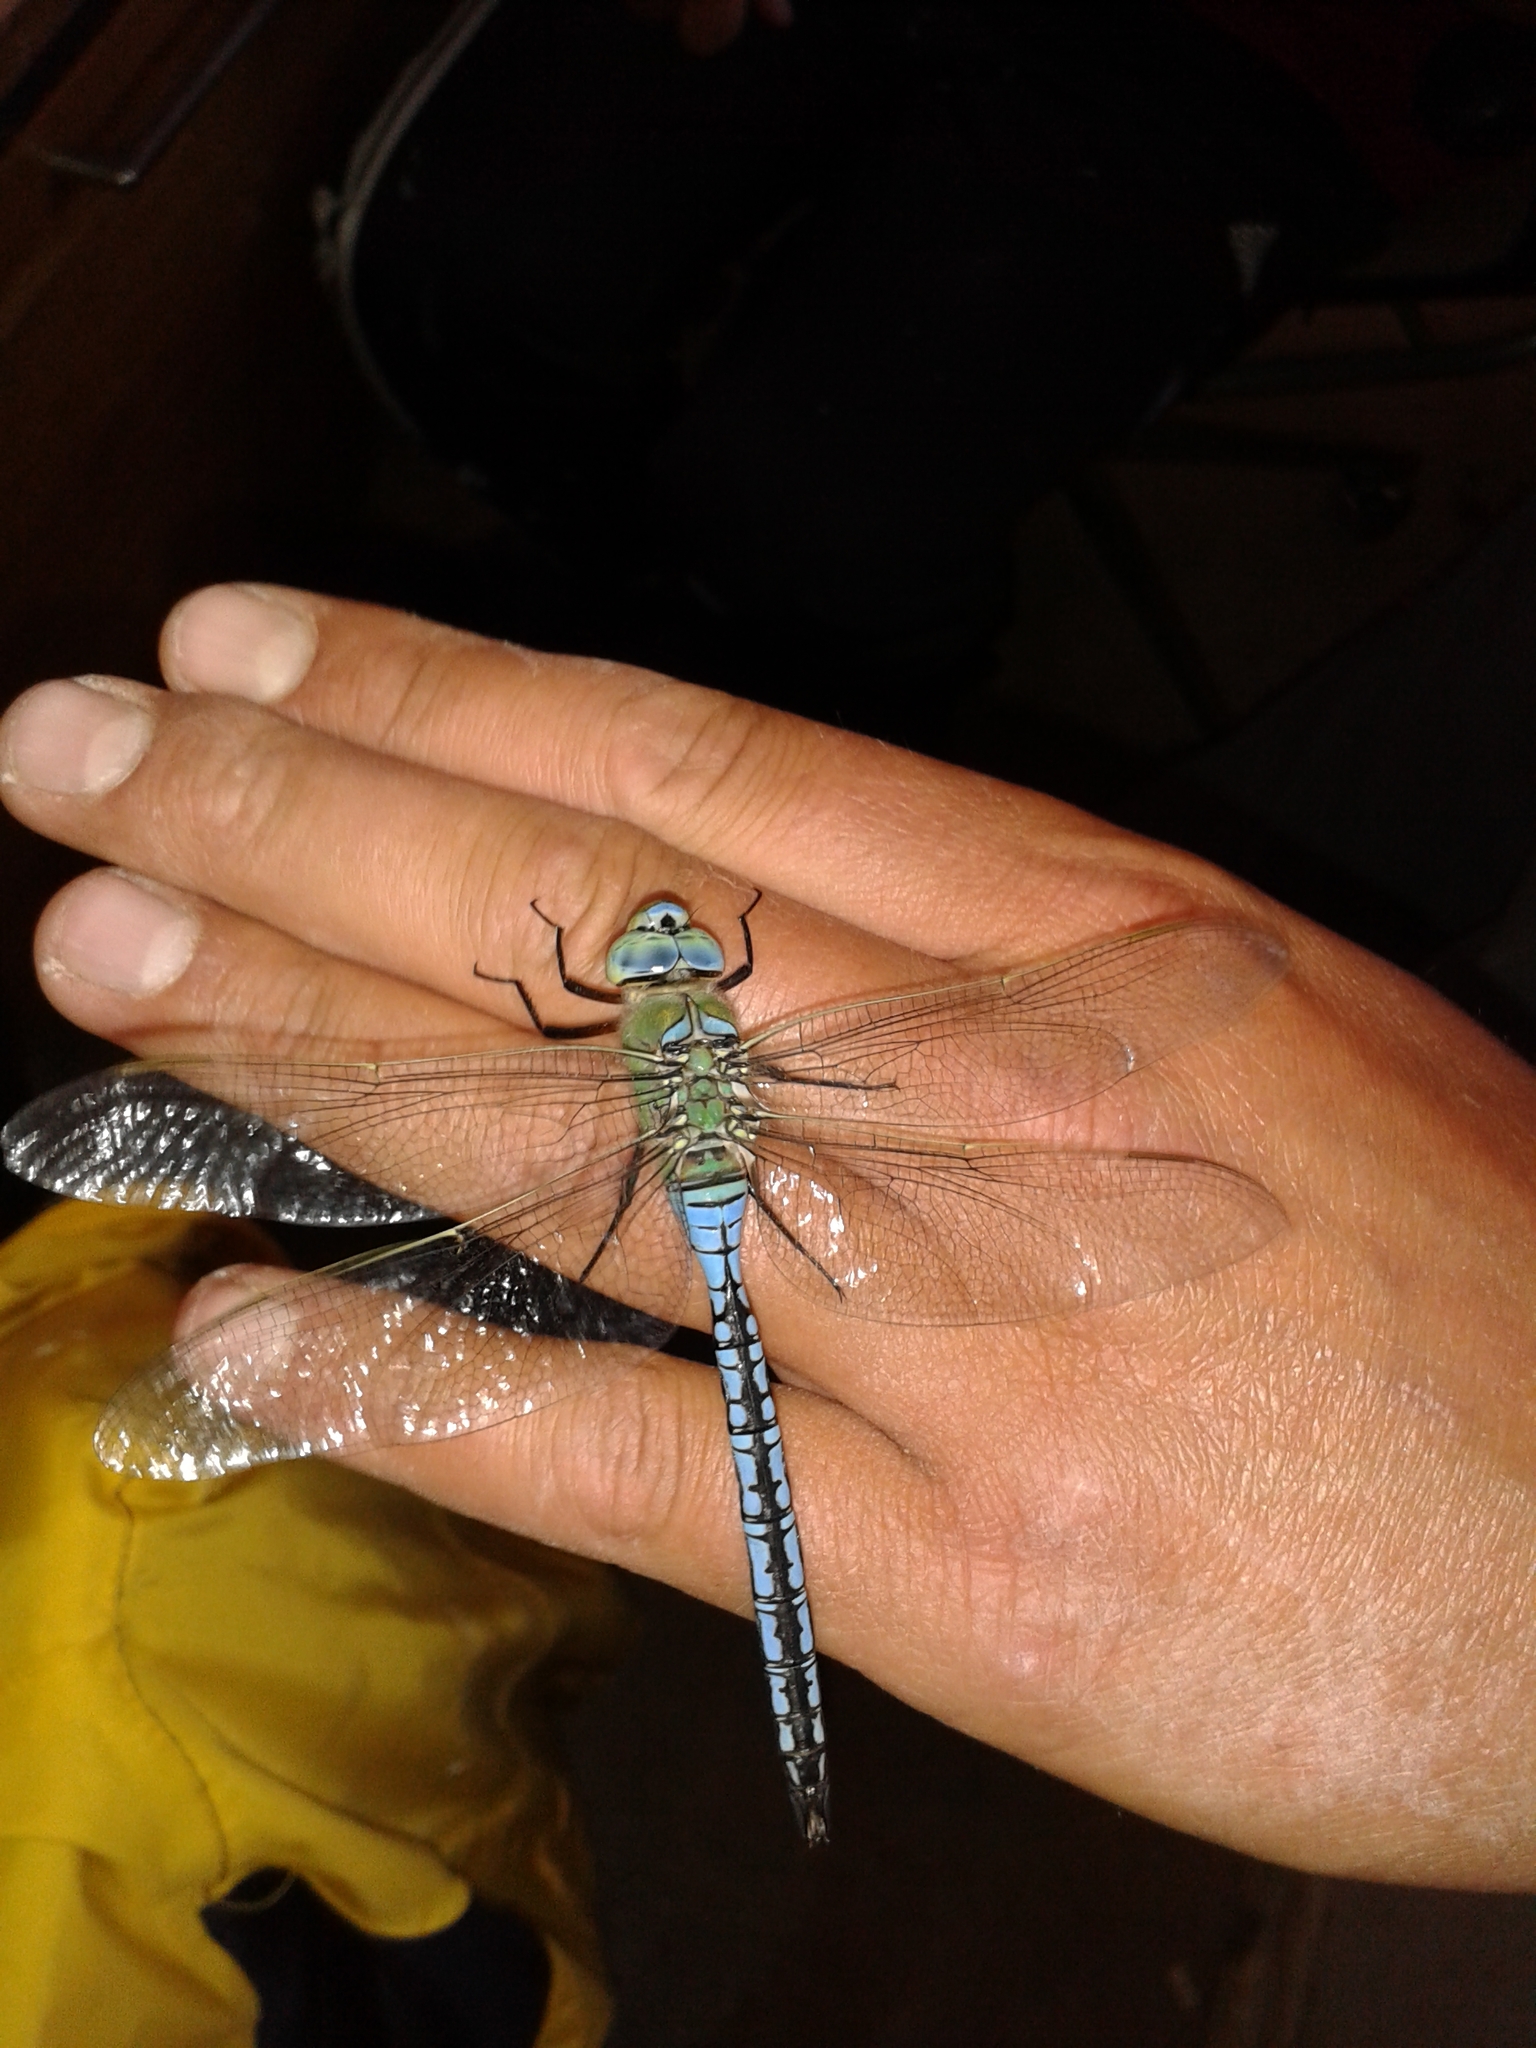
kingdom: Animalia
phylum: Arthropoda
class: Insecta
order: Odonata
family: Aeshnidae
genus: Anax
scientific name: Anax imperator
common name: Emperor dragonfly
